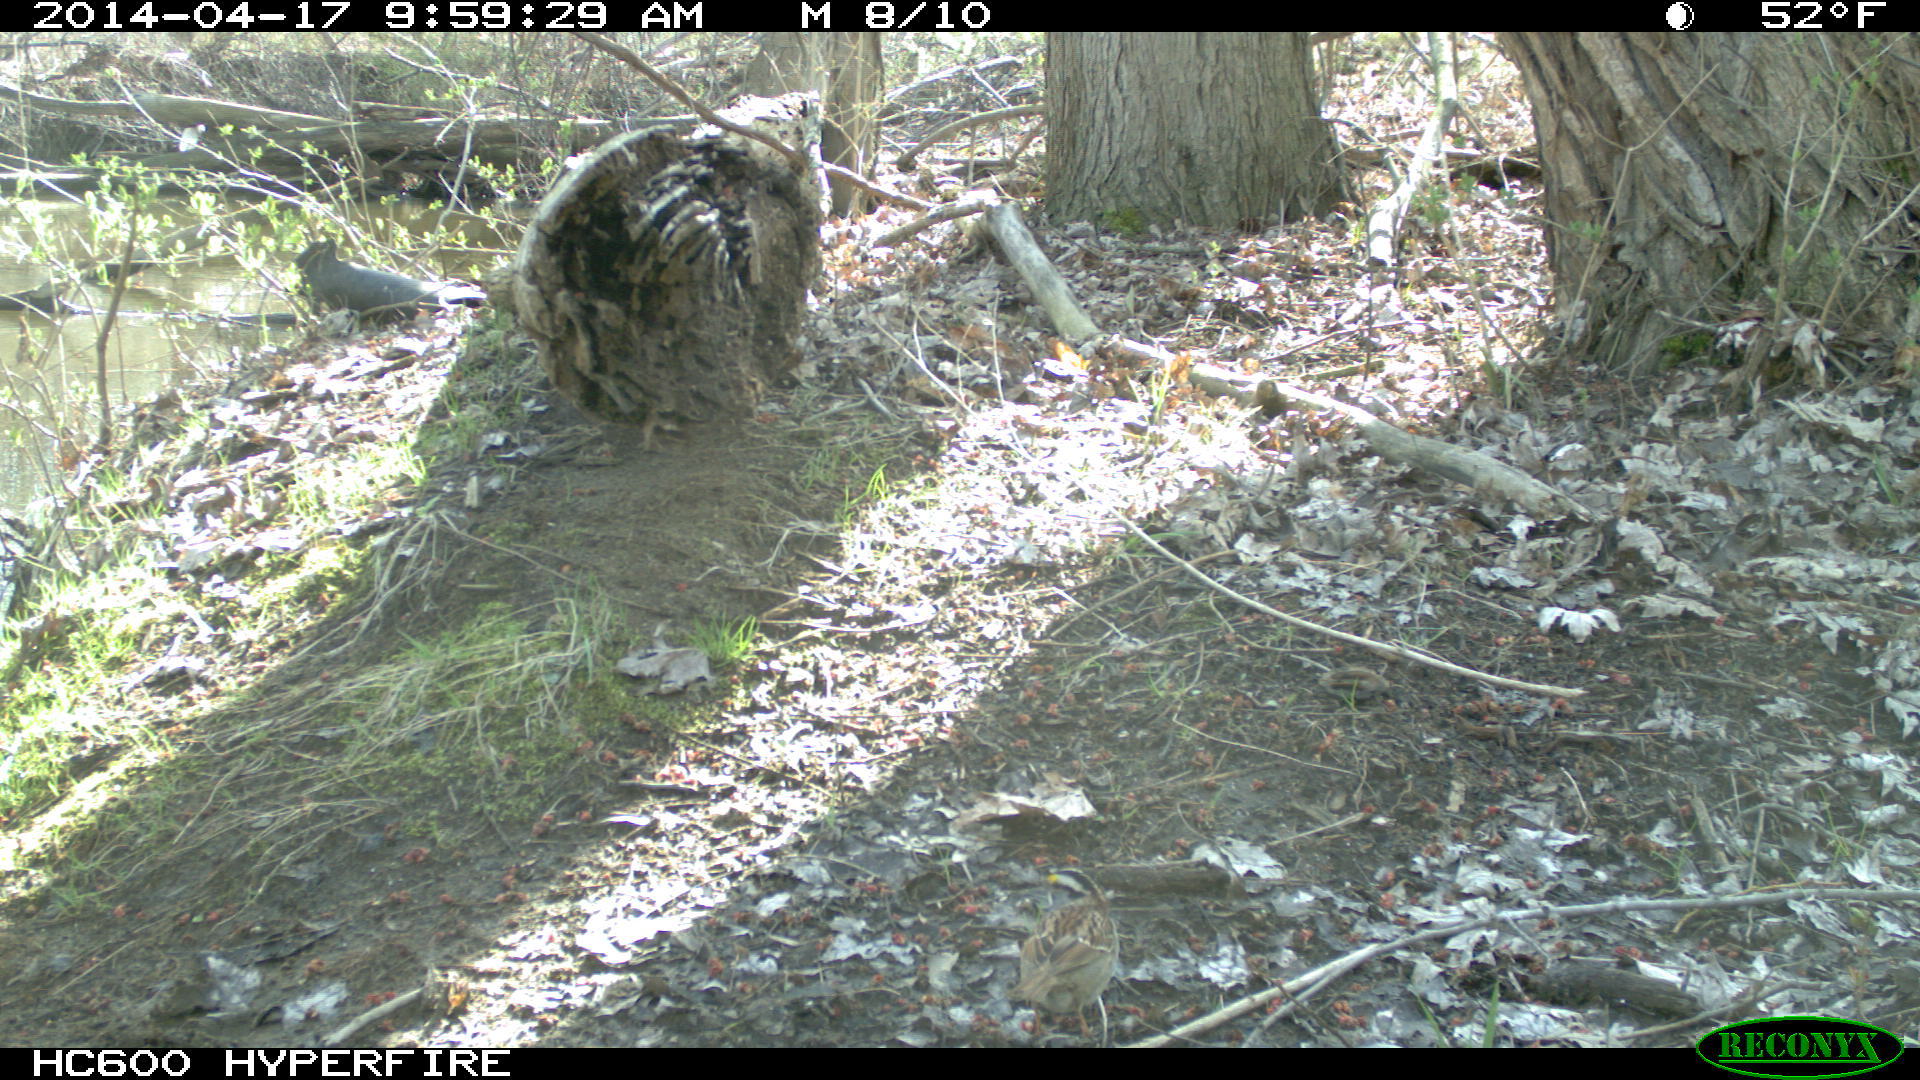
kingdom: Animalia
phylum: Chordata
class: Aves
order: Passeriformes
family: Passerellidae
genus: Zonotrichia
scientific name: Zonotrichia albicollis
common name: White-throated sparrow
